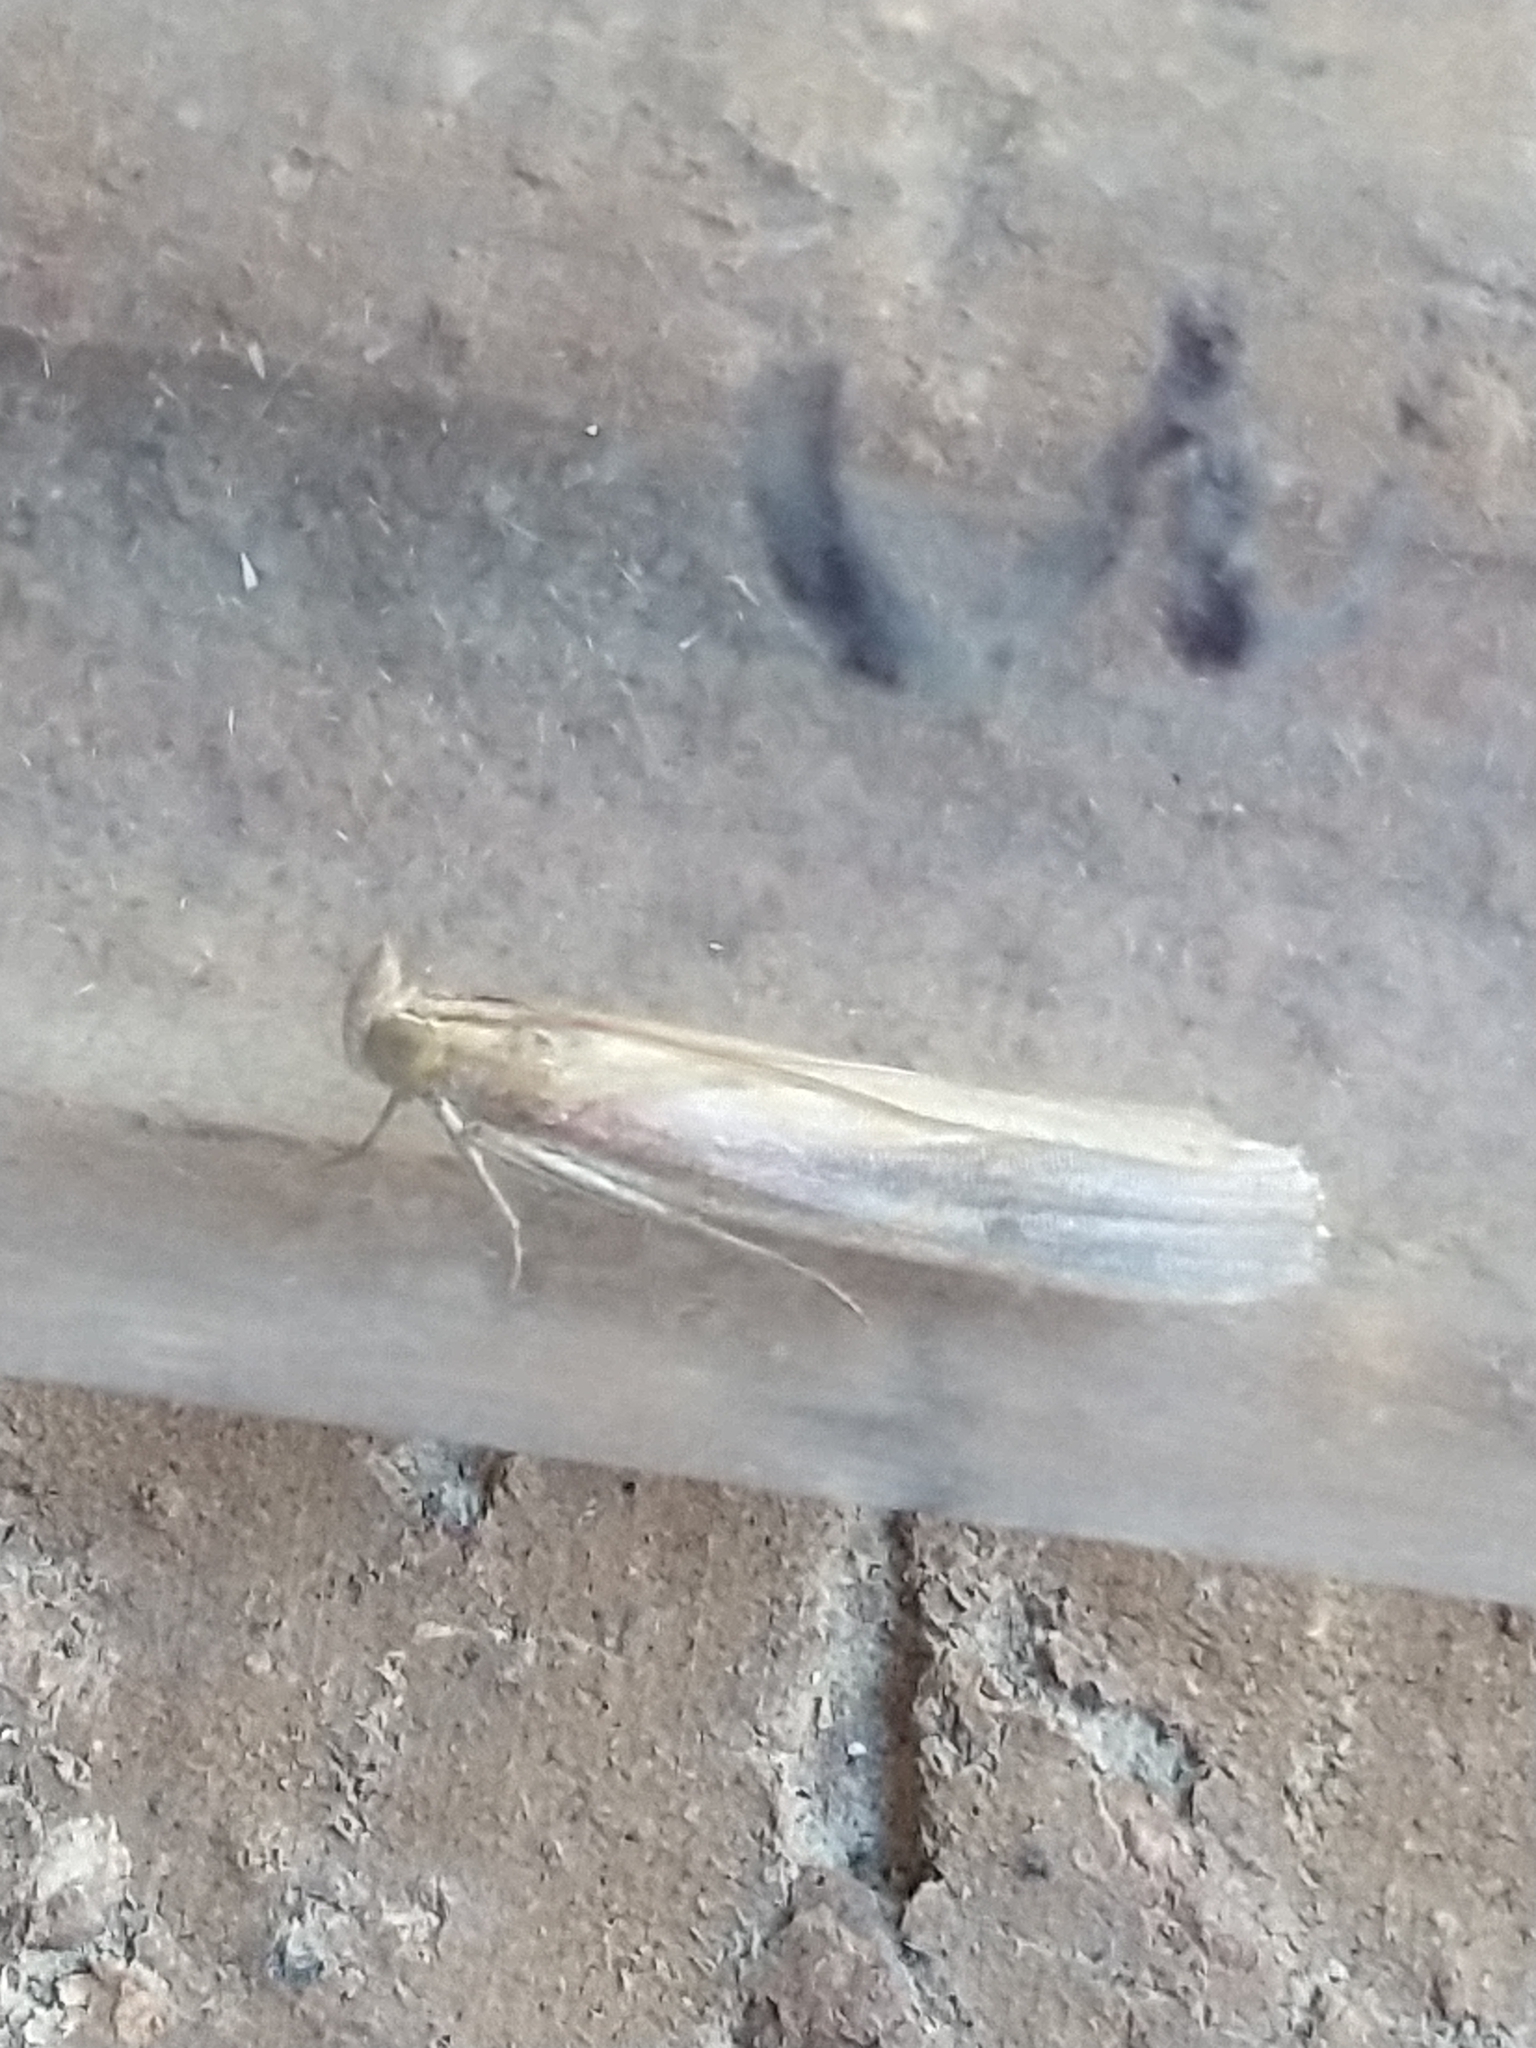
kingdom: Animalia
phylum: Arthropoda
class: Insecta
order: Lepidoptera
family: Pyralidae
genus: Oncocera
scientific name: Oncocera semirubella
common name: Rosy-striped knot-horn
